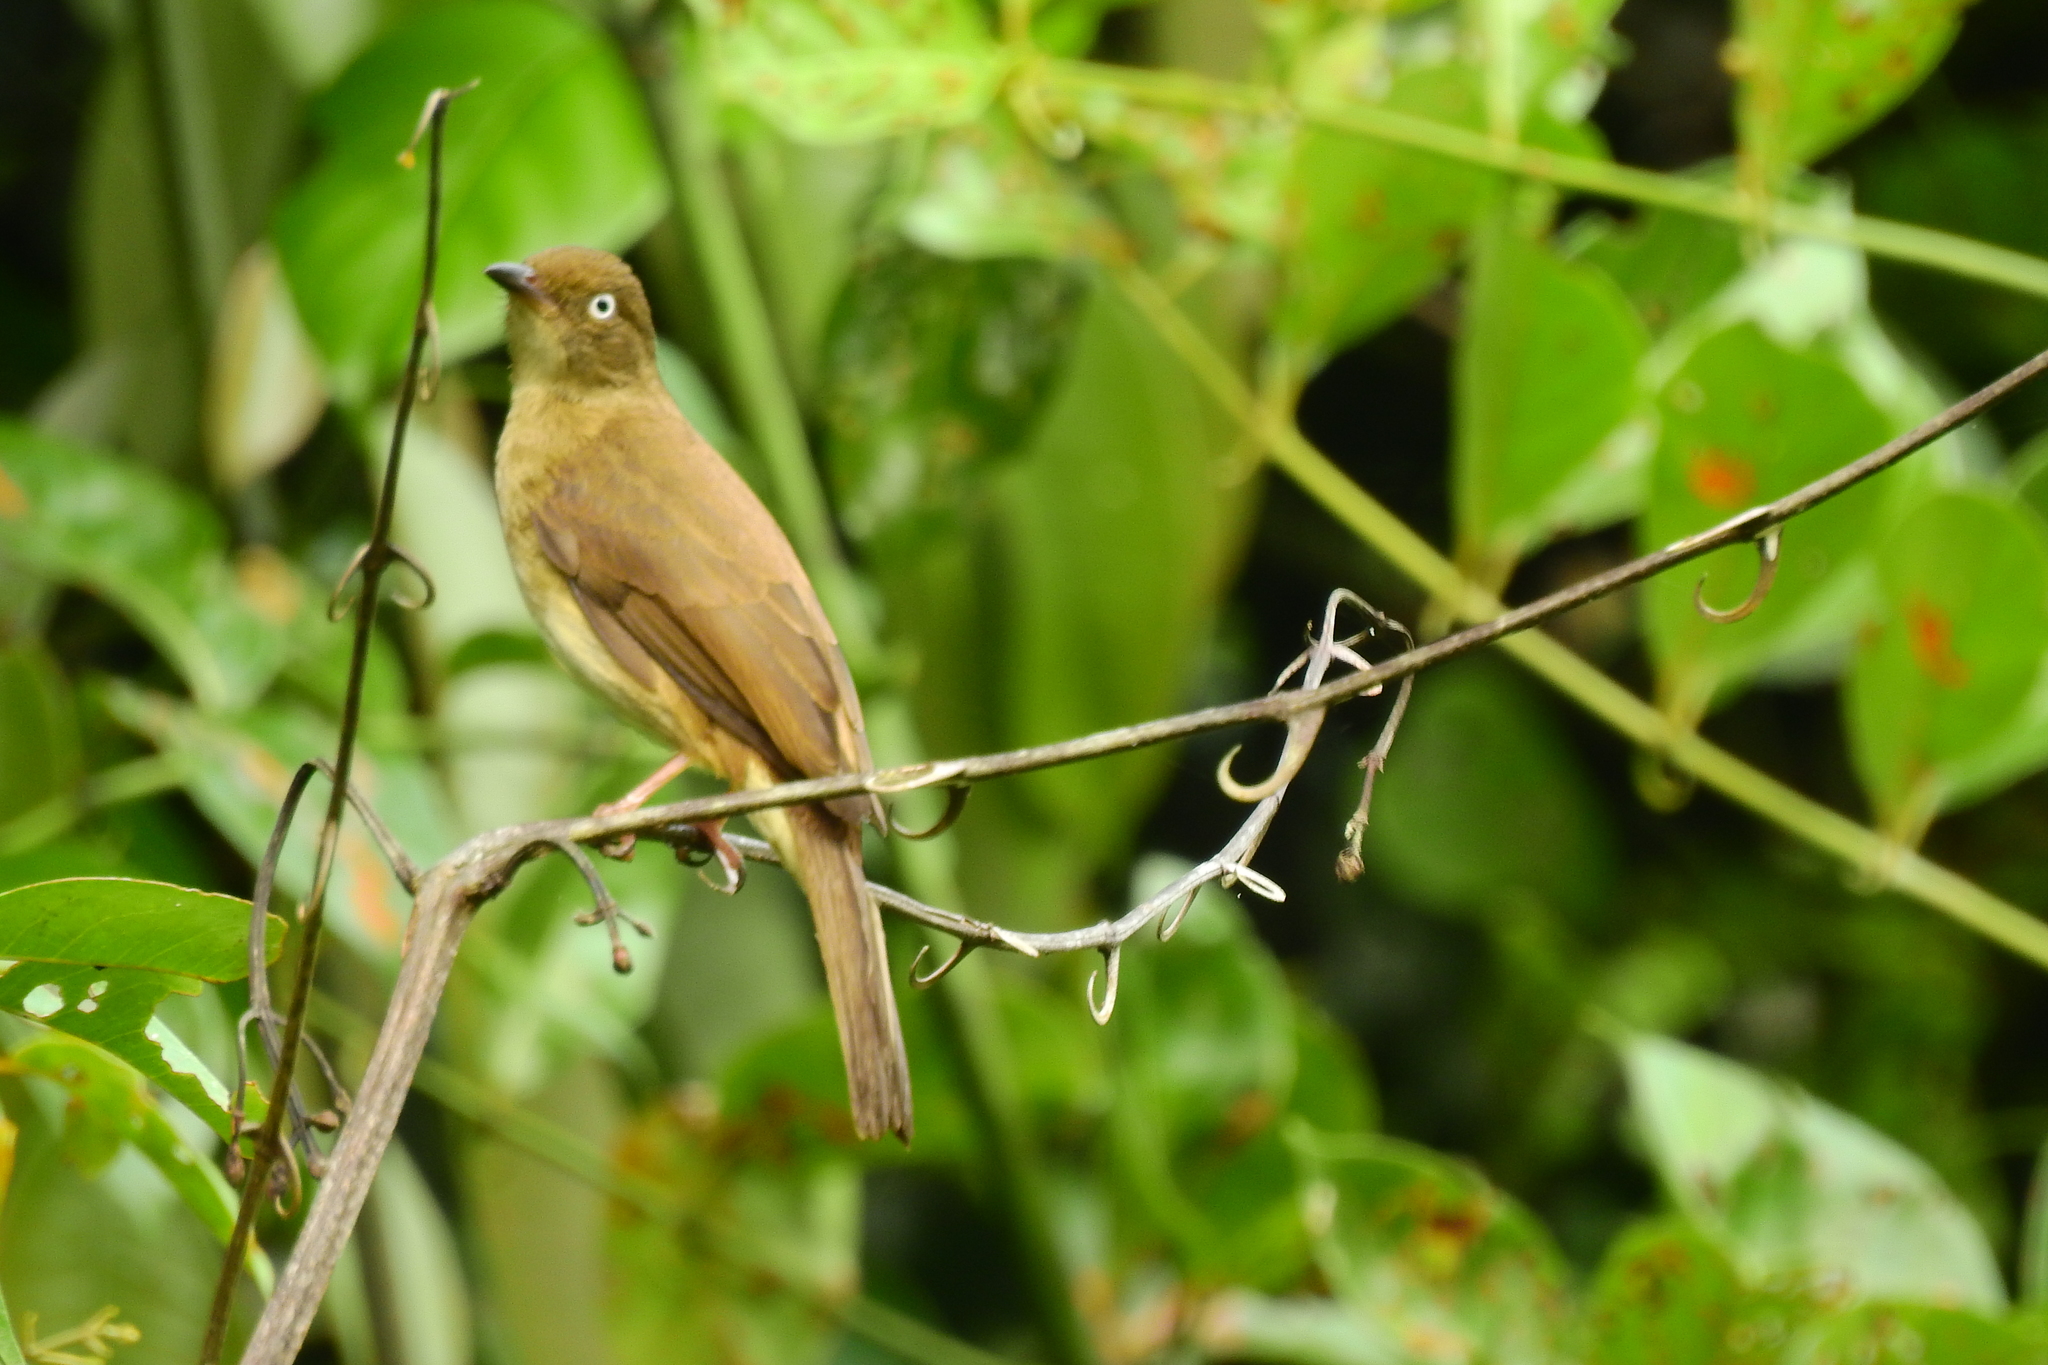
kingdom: Animalia
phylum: Chordata
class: Aves
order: Passeriformes
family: Pycnonotidae
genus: Pycnonotus
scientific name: Pycnonotus simplex
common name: Cream-vented bulbul
